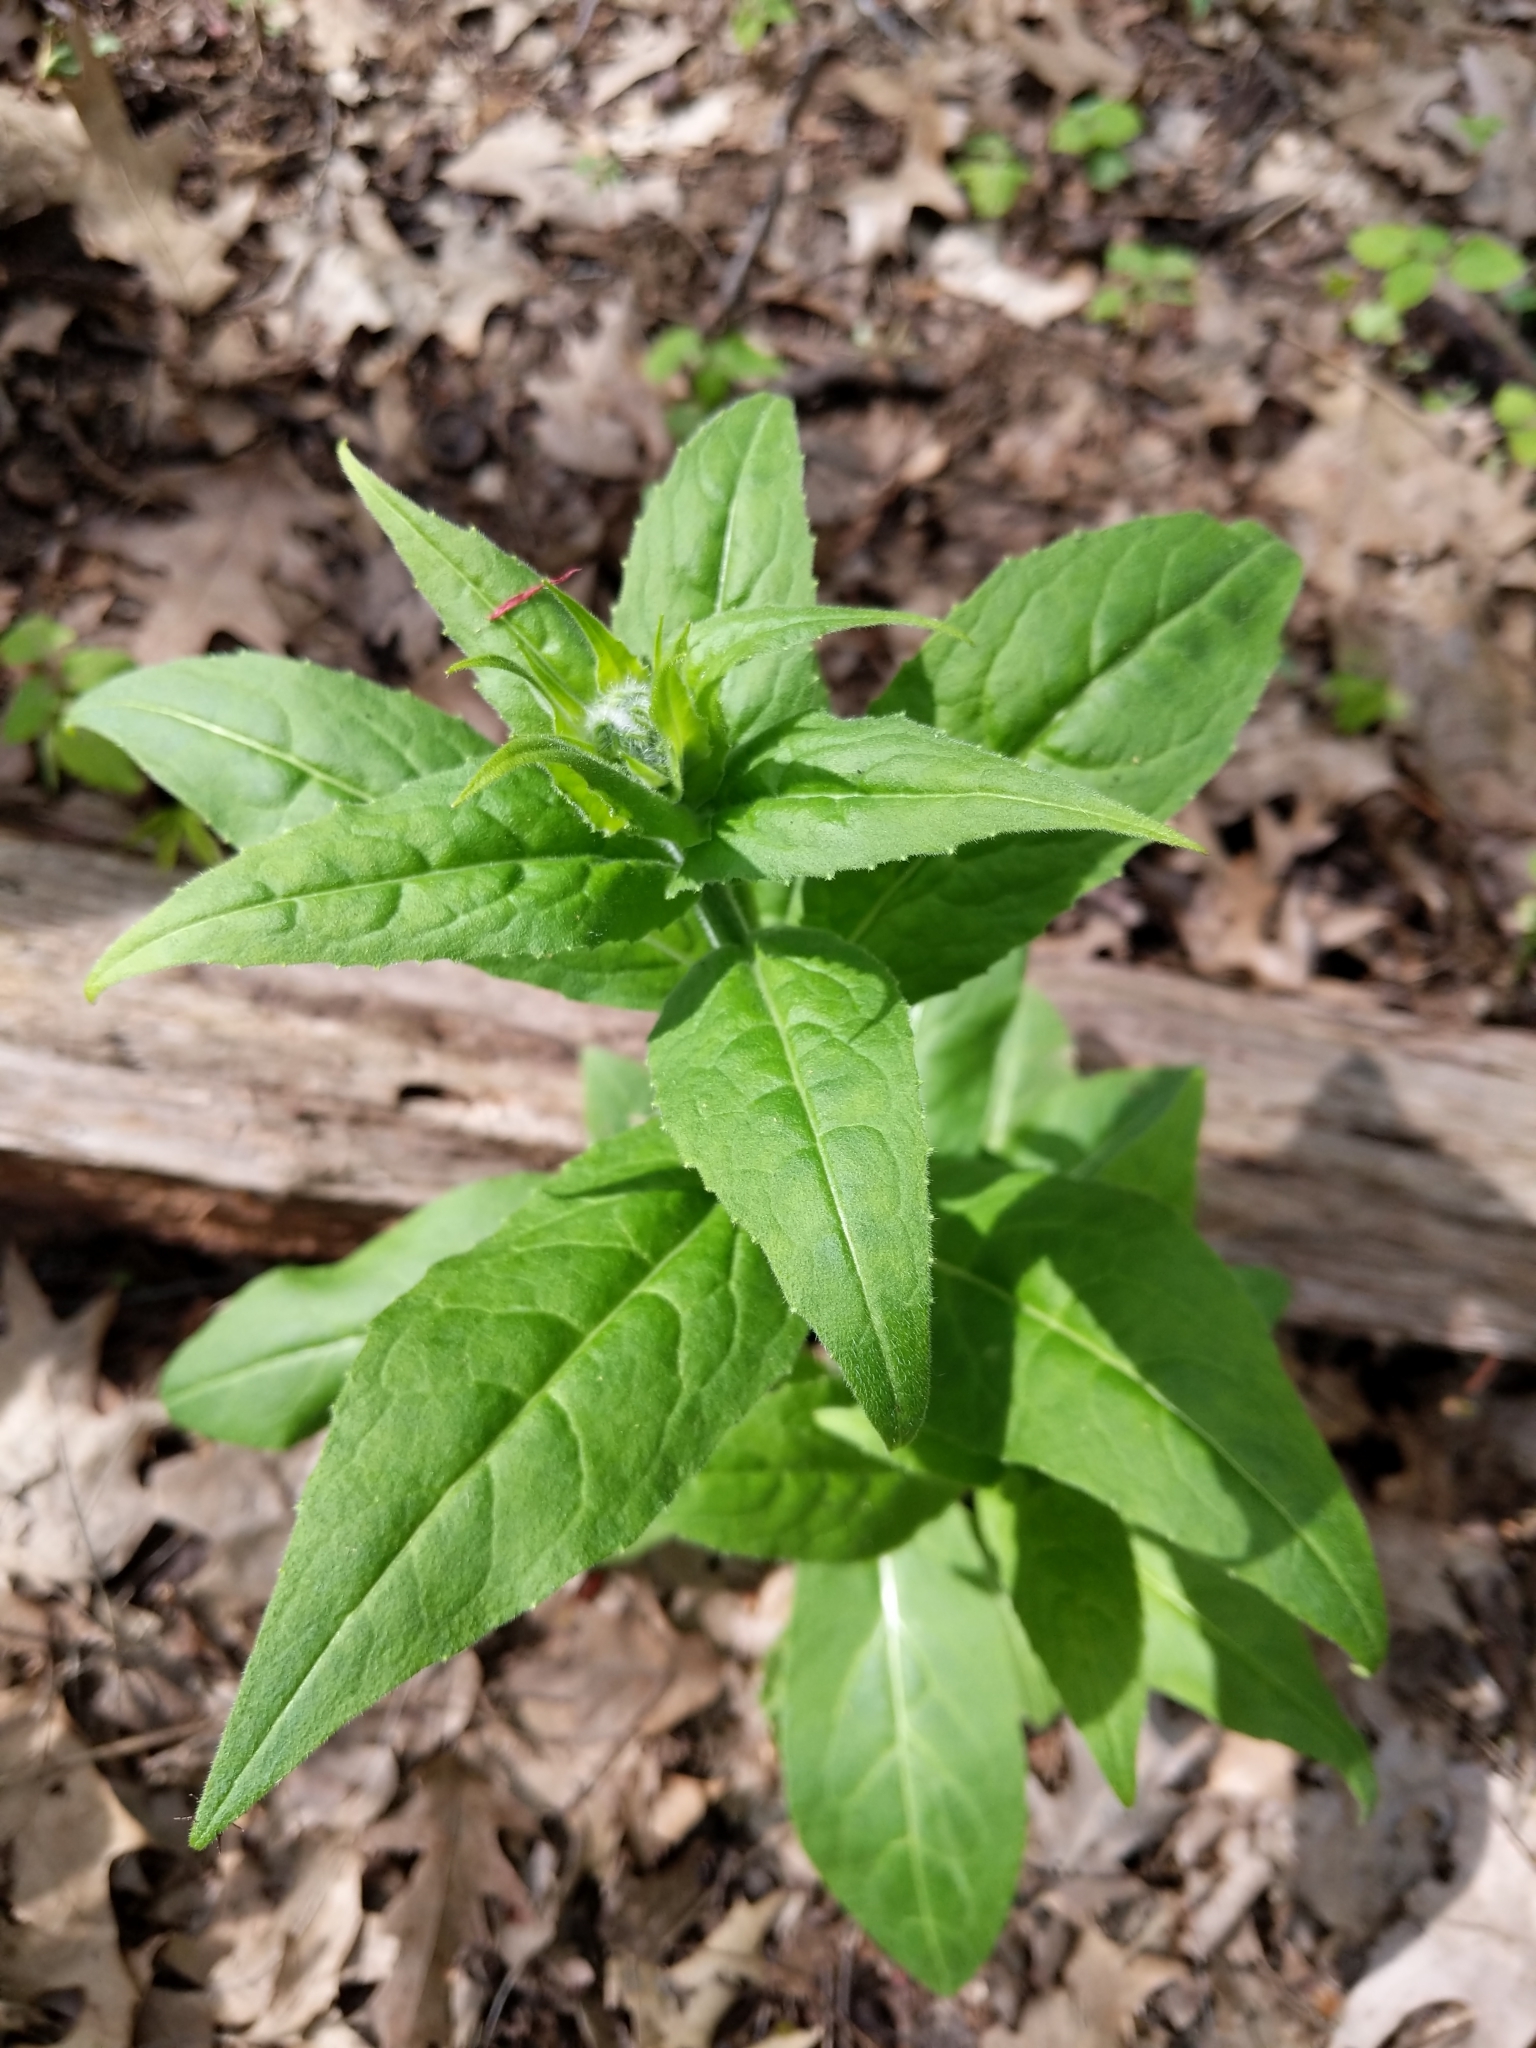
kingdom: Plantae
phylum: Tracheophyta
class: Magnoliopsida
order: Brassicales
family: Brassicaceae
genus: Hesperis
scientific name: Hesperis matronalis
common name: Dame's-violet
